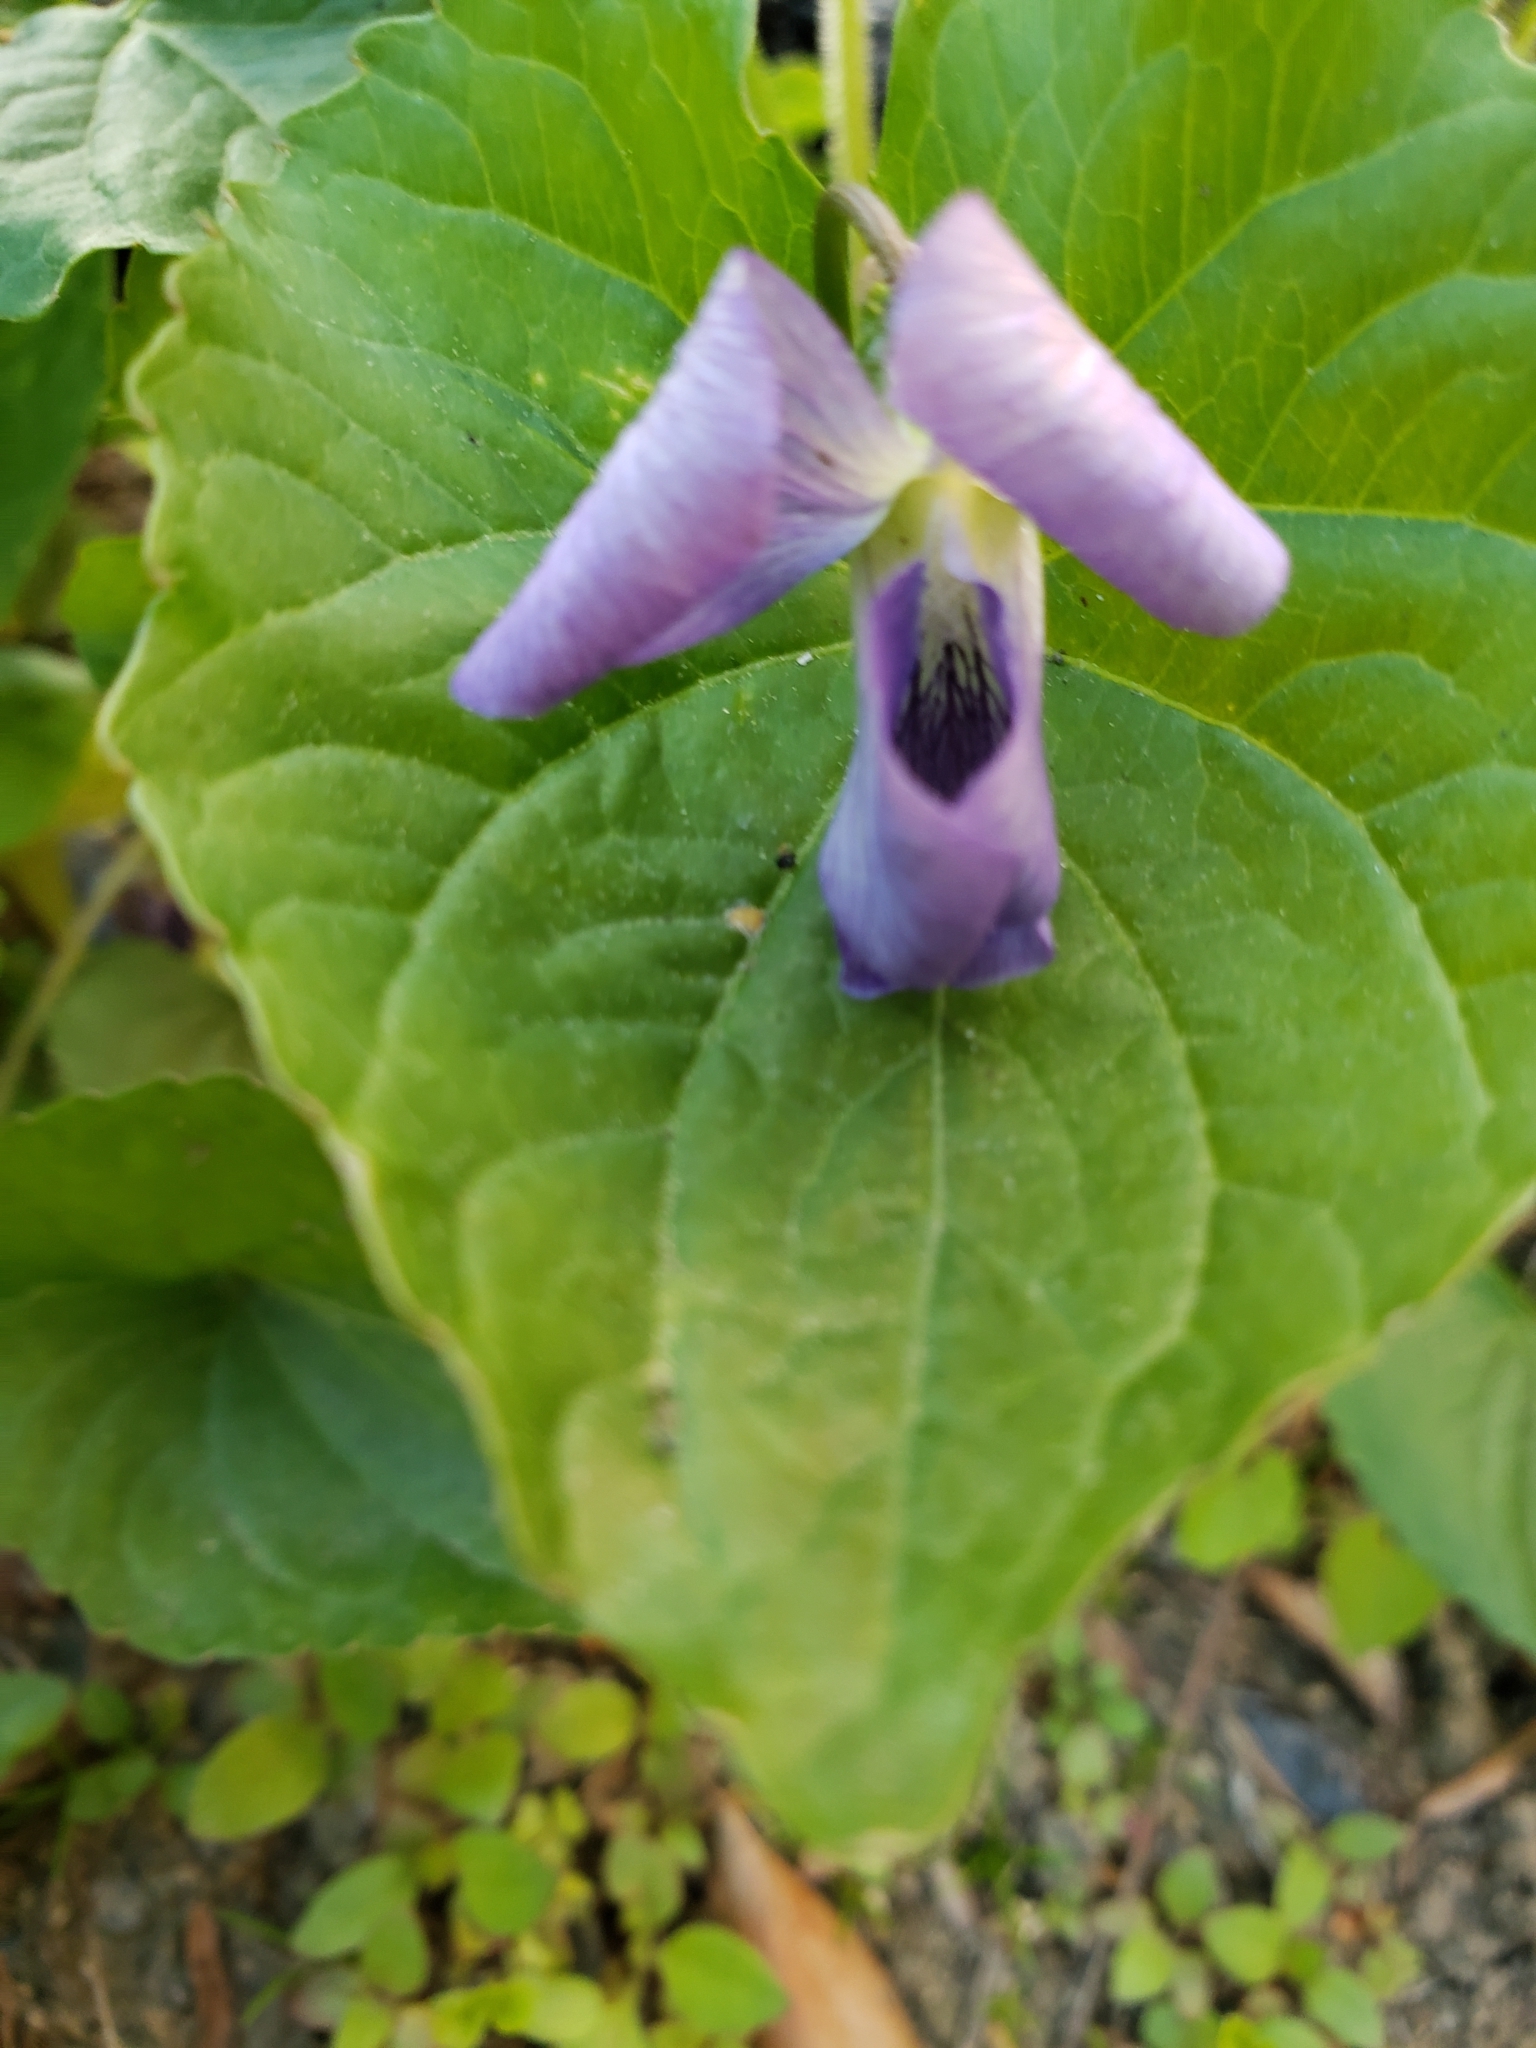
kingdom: Plantae
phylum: Tracheophyta
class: Magnoliopsida
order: Malpighiales
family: Violaceae
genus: Viola
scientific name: Viola sororia
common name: Dooryard violet
